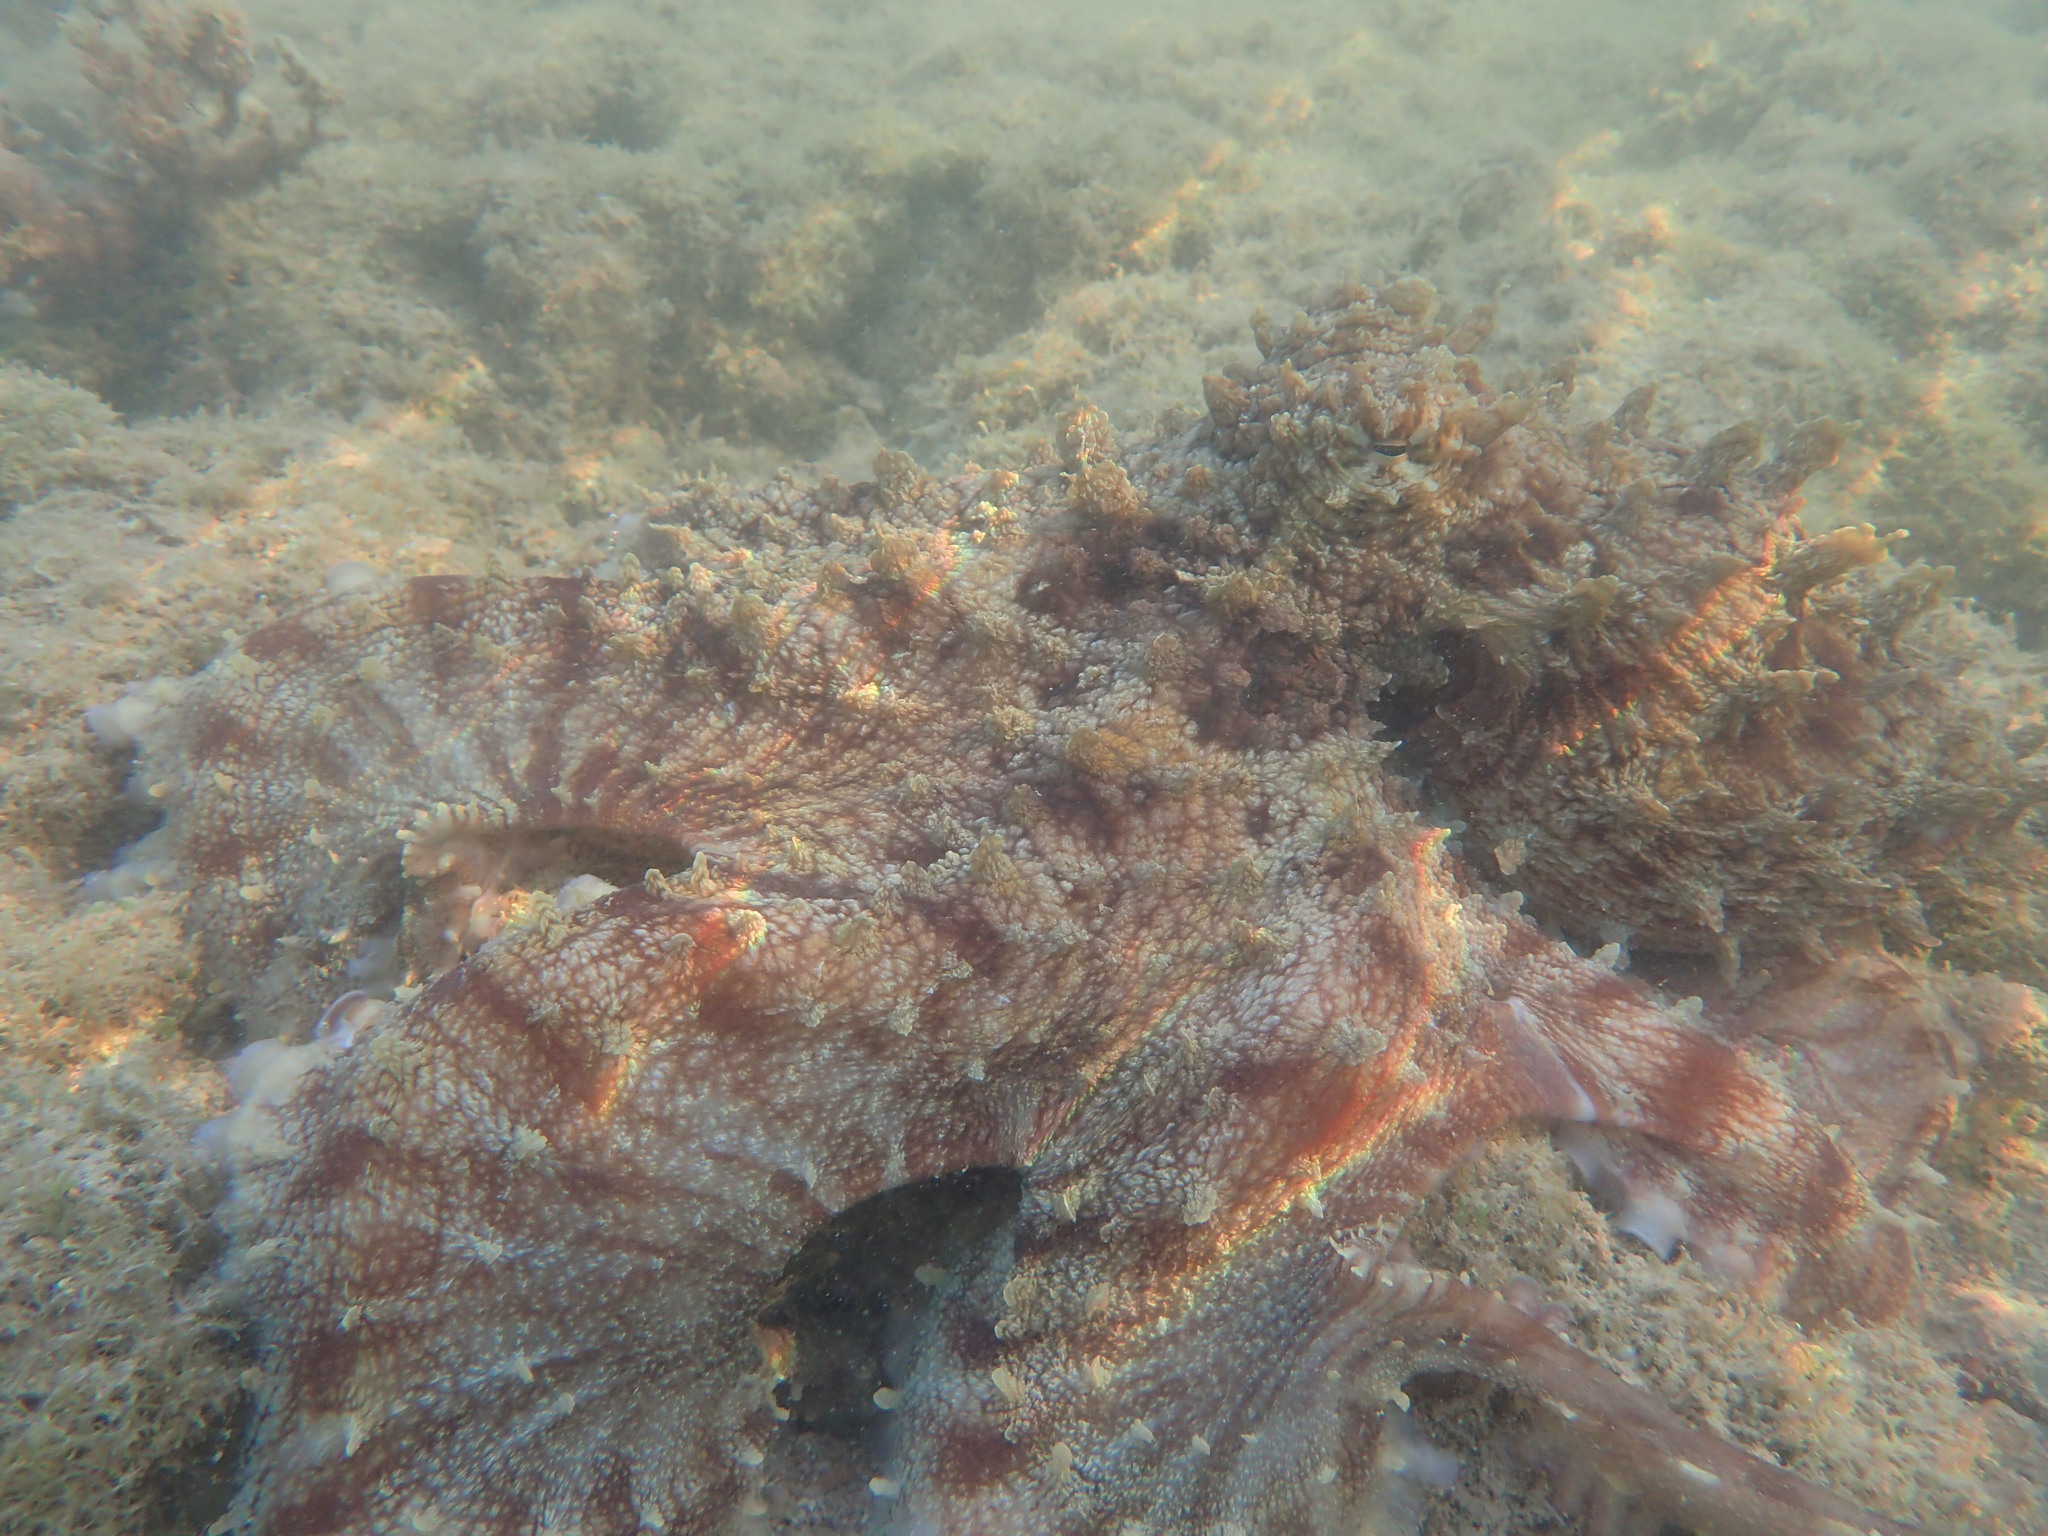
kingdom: Animalia
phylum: Mollusca
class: Cephalopoda
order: Octopoda
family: Octopodidae
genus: Octopus
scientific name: Octopus cyanea
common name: Cyane's octopus
